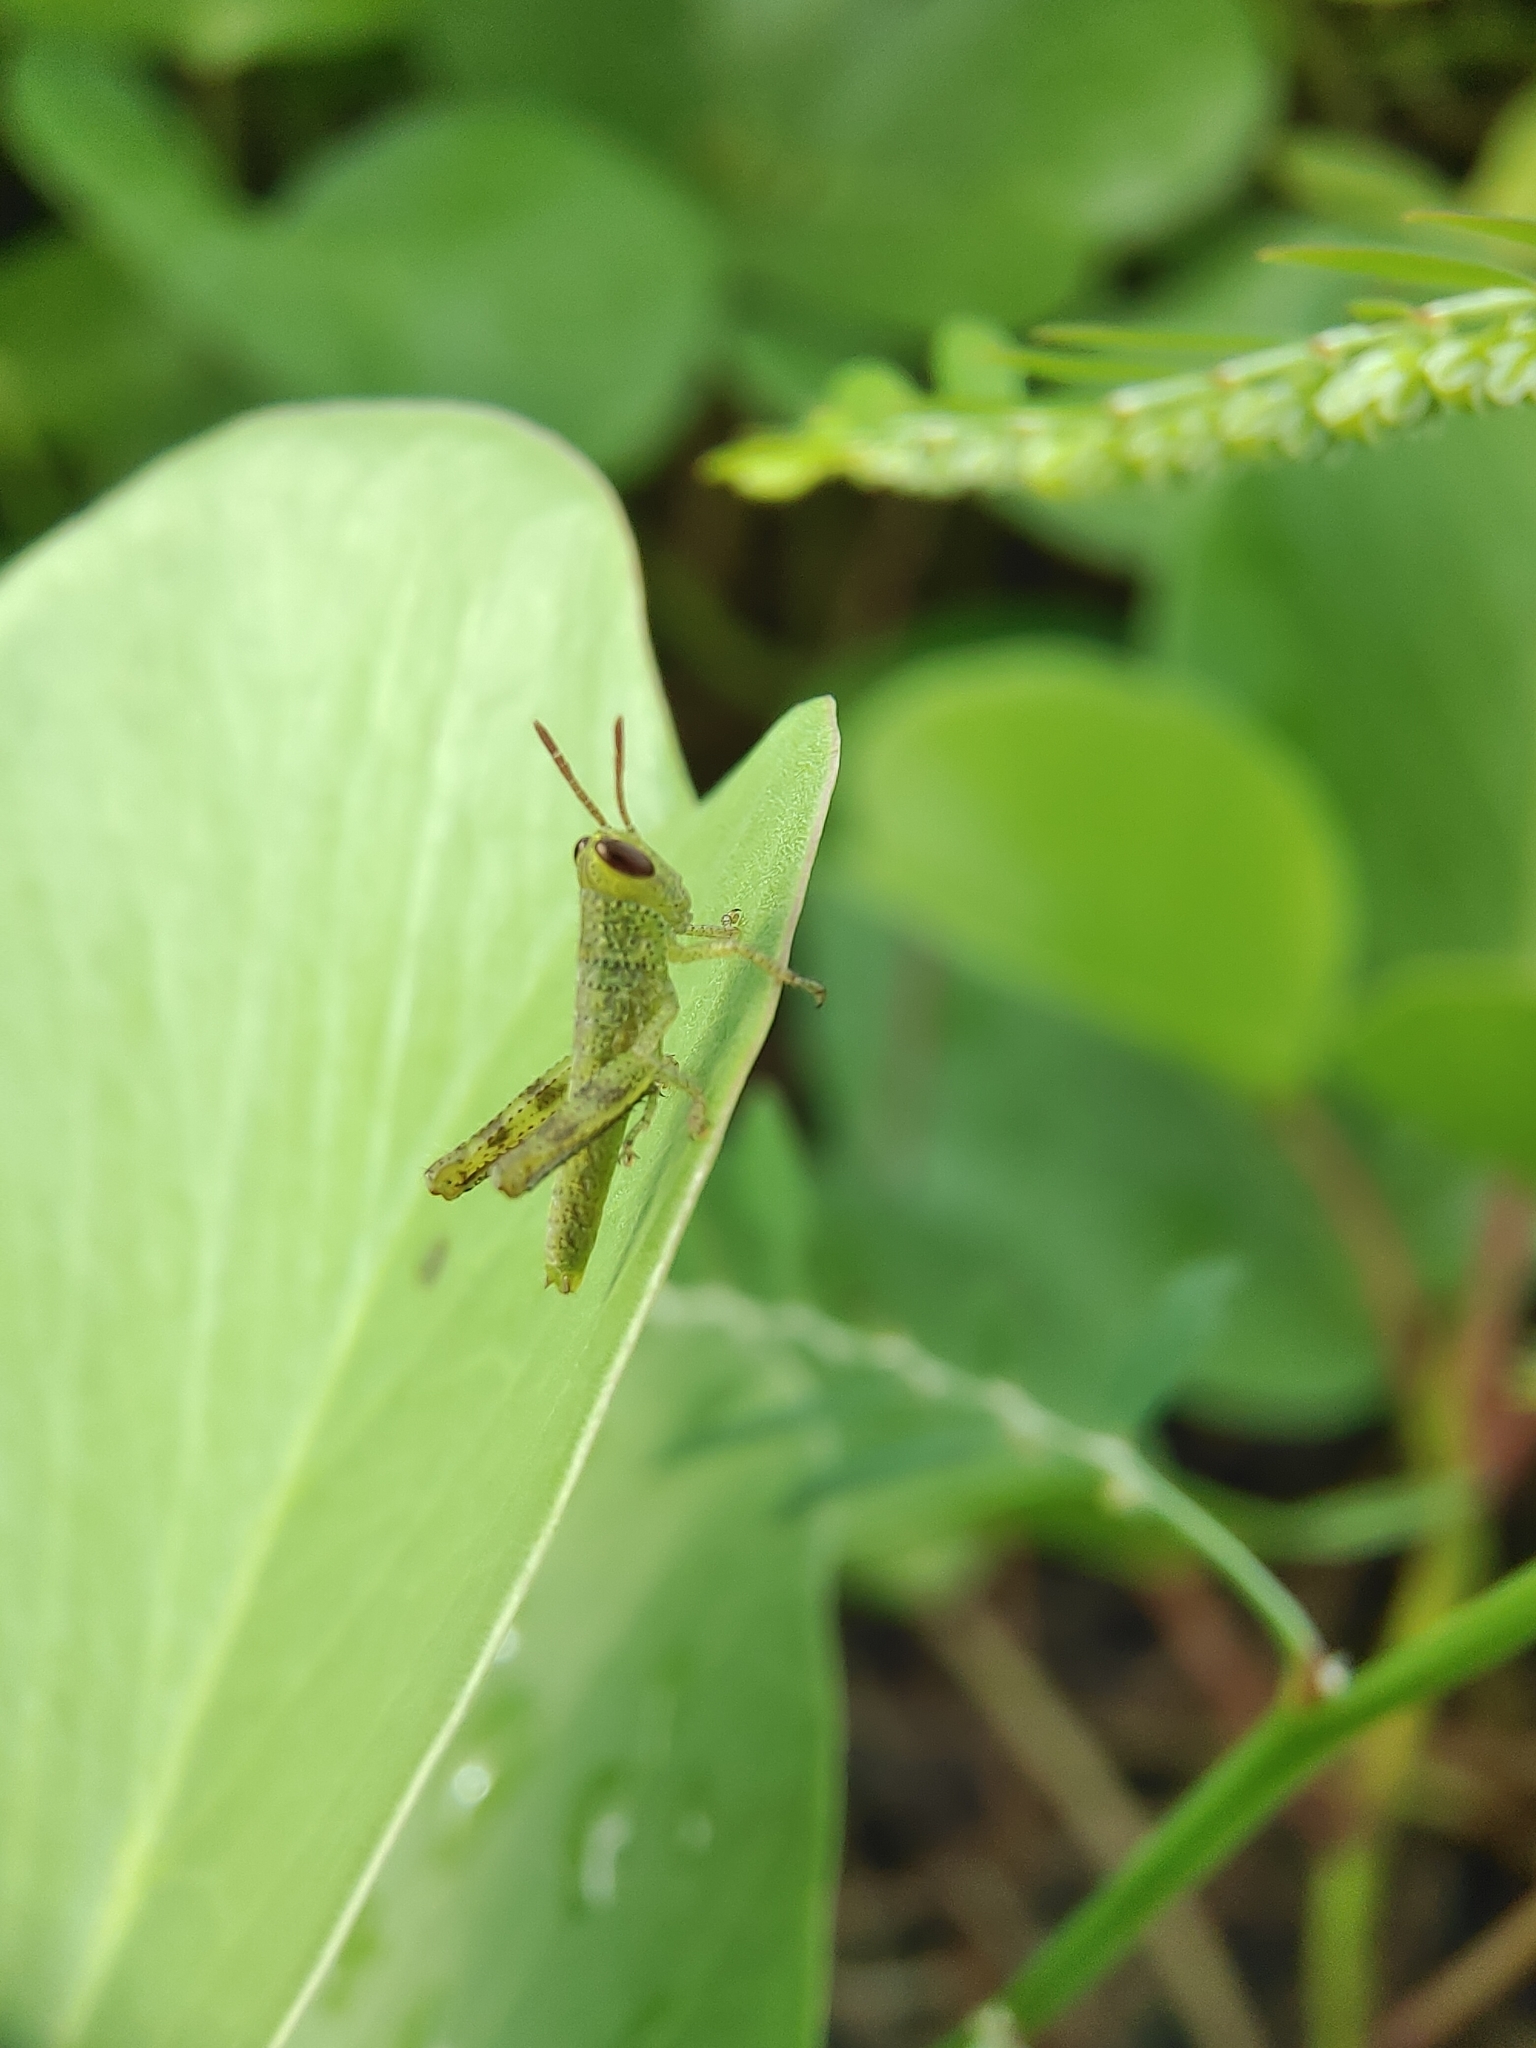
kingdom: Animalia
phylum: Arthropoda
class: Insecta
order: Orthoptera
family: Acrididae
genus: Valanga
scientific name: Valanga nigricornis
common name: Javanese bird grasshopper
